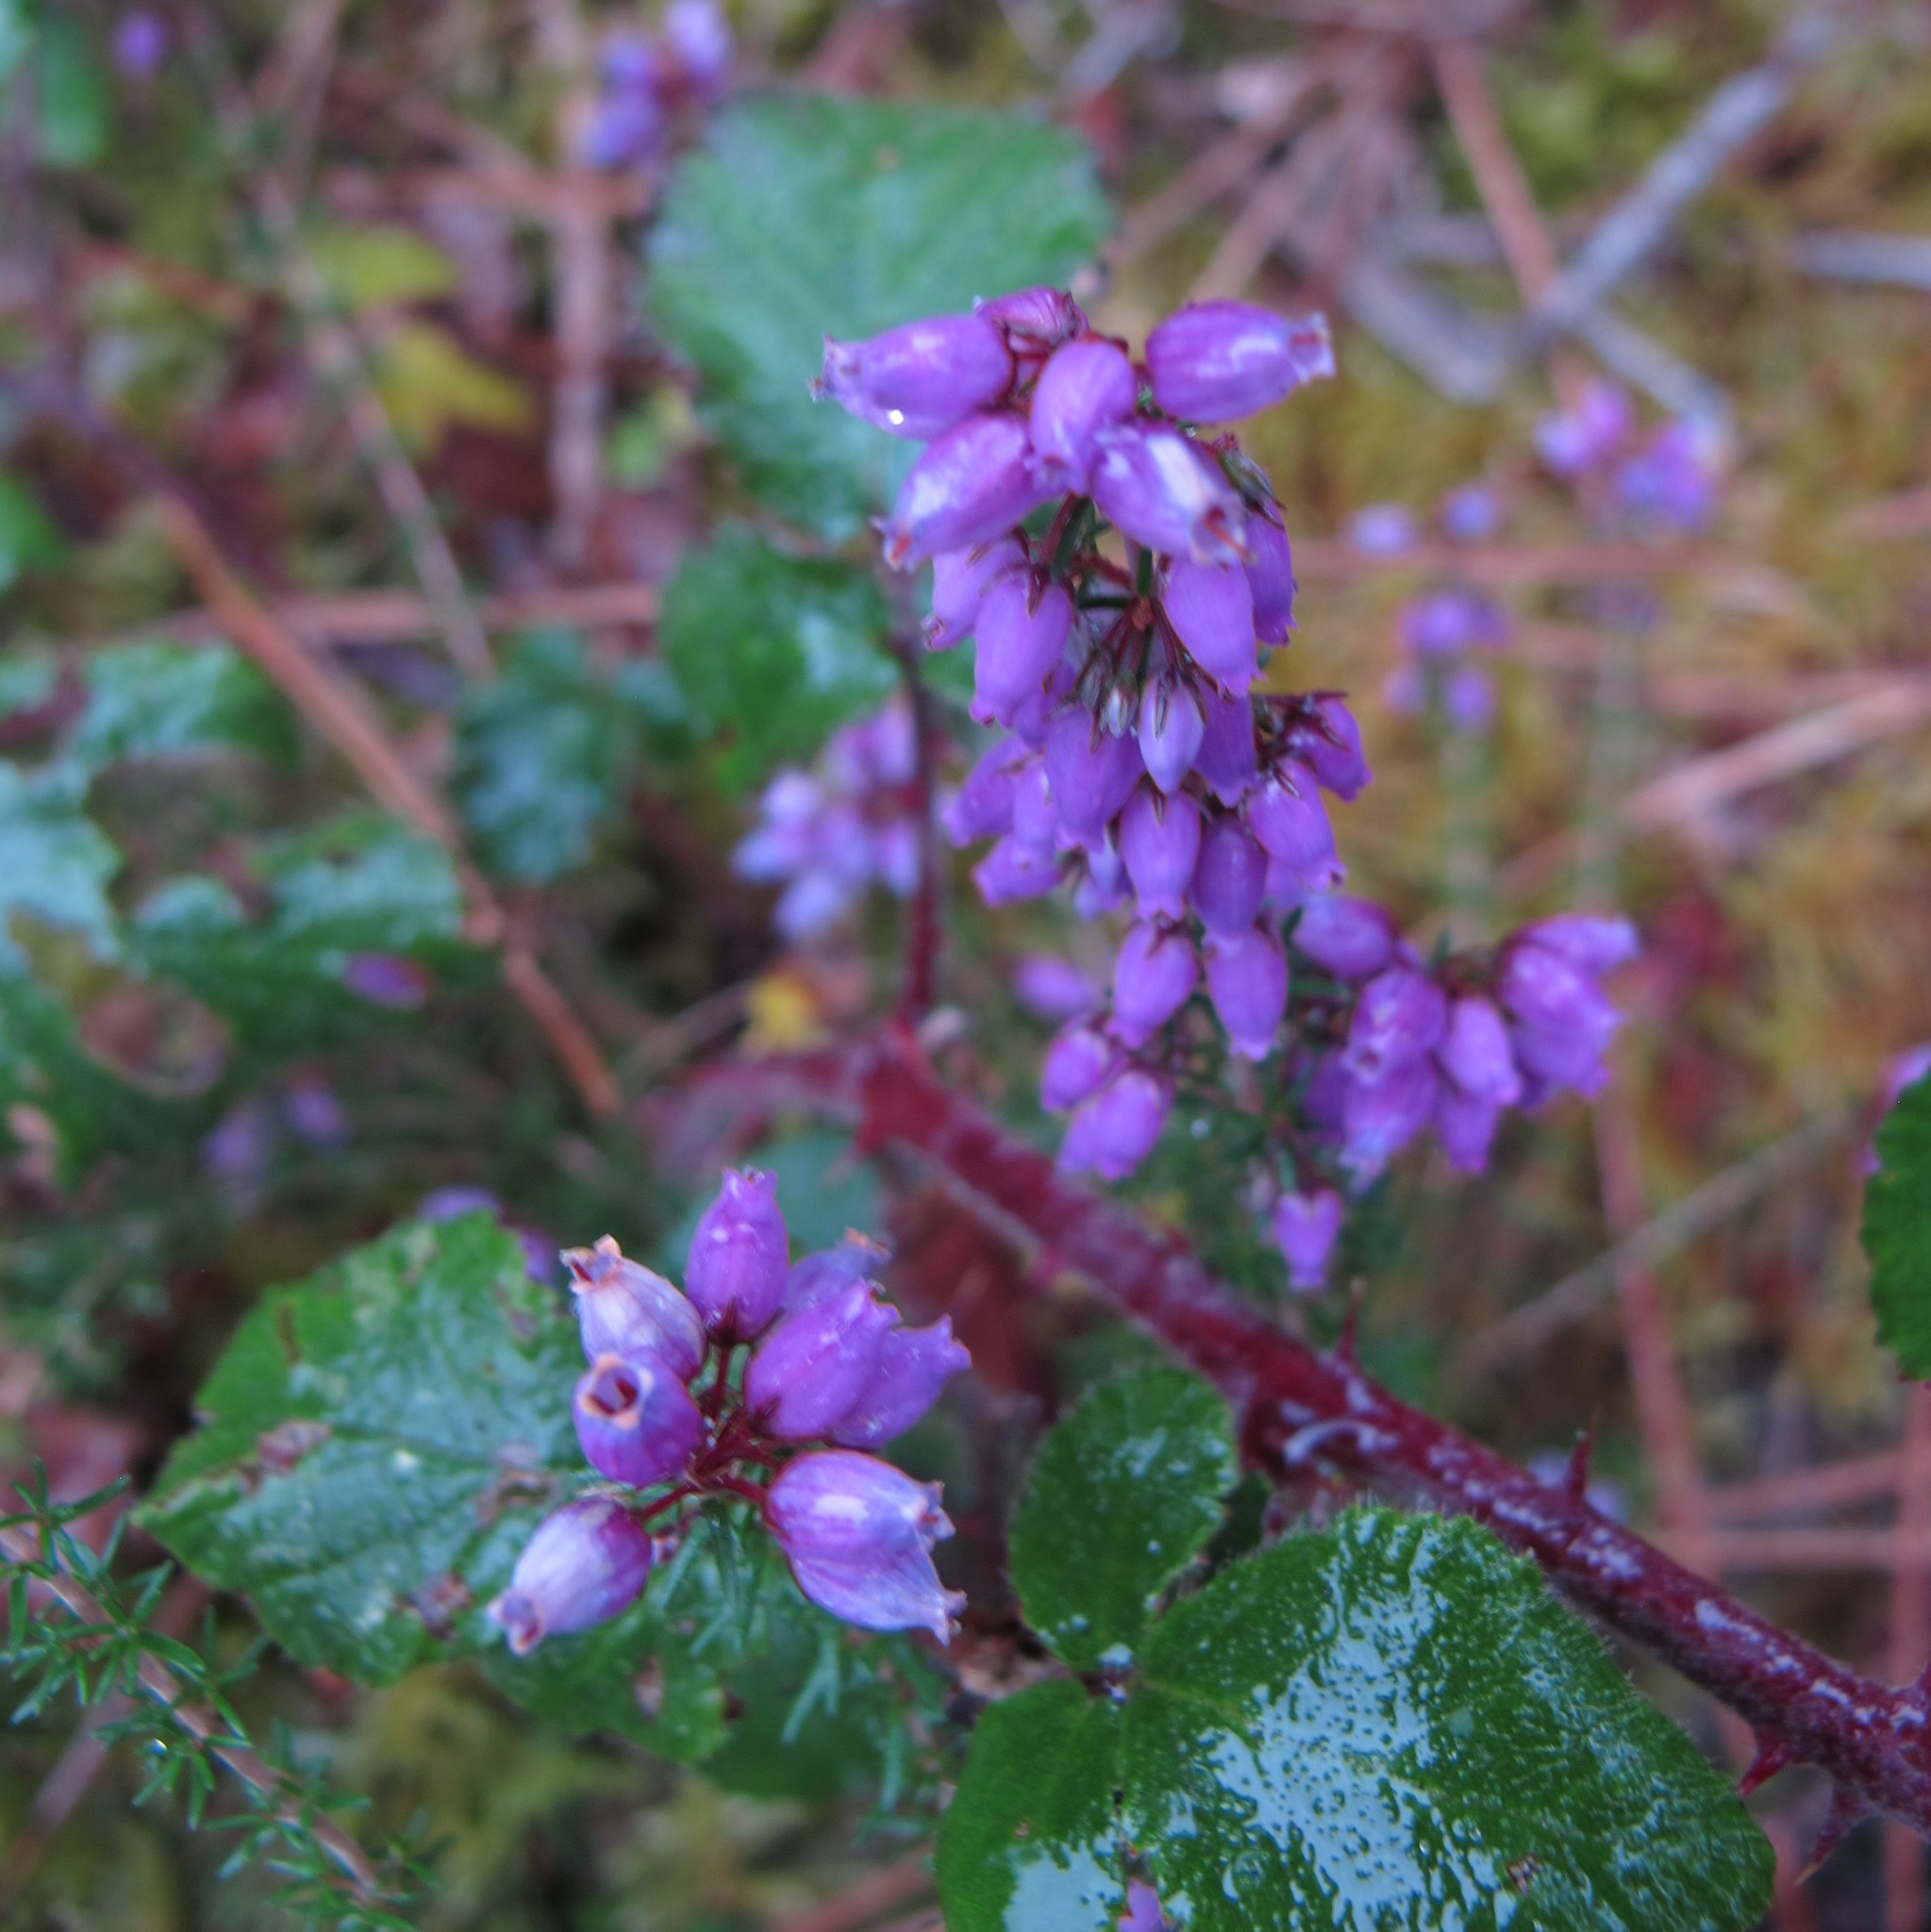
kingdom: Plantae
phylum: Tracheophyta
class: Magnoliopsida
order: Ericales
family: Ericaceae
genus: Erica
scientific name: Erica cinerea
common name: Bell heather
